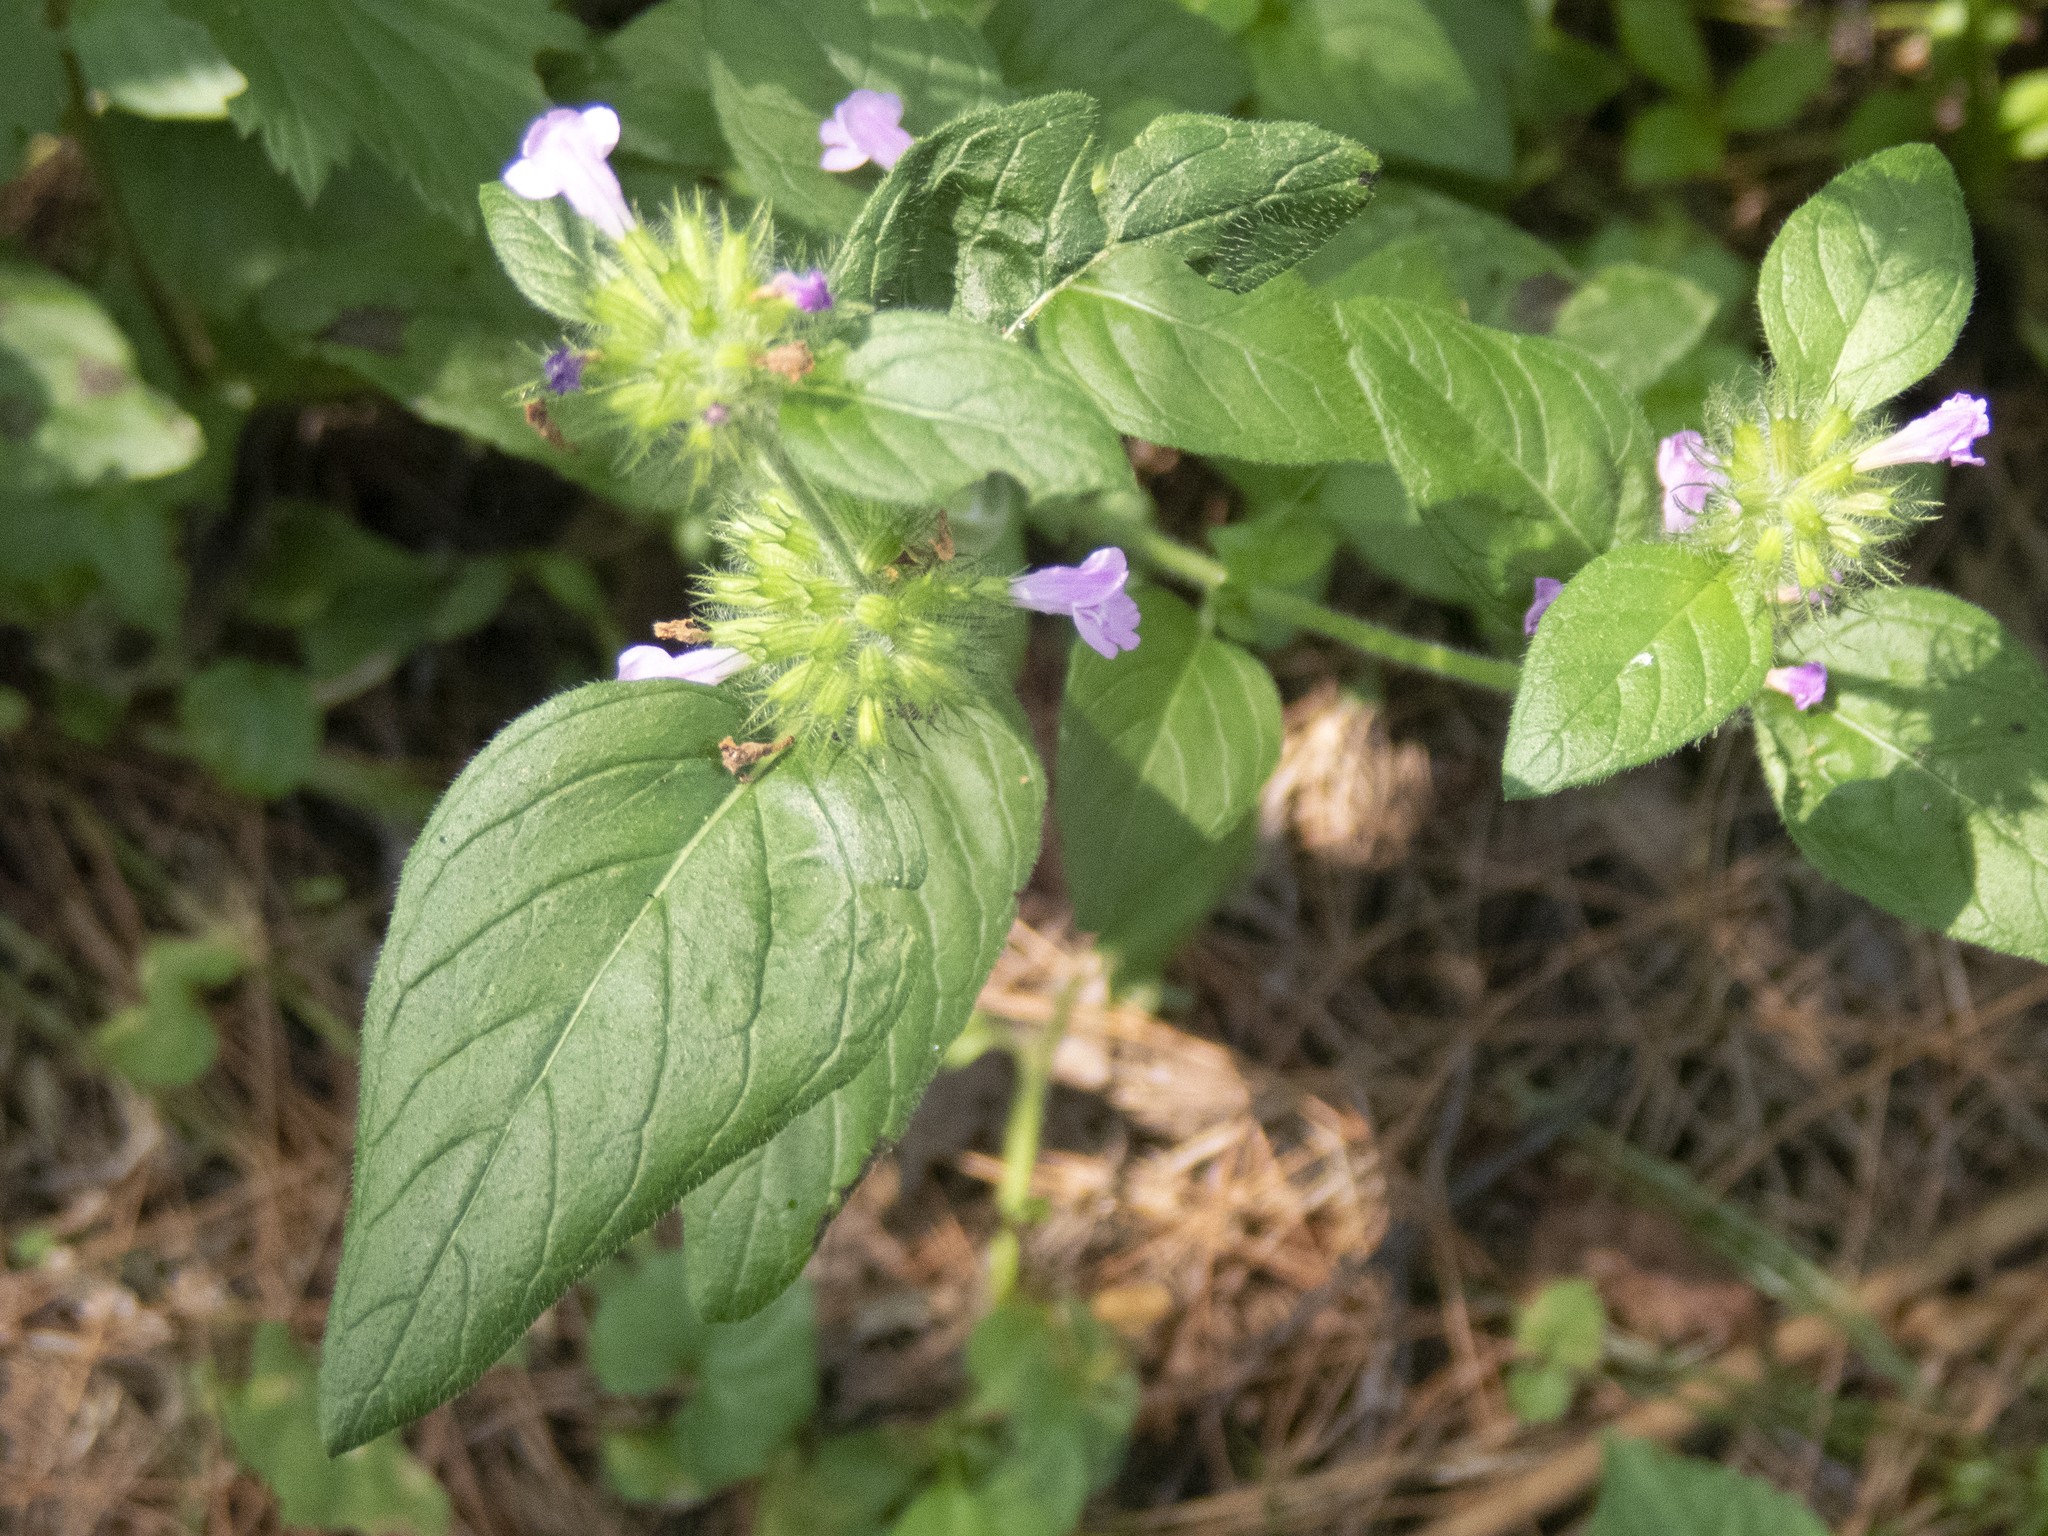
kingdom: Plantae
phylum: Tracheophyta
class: Magnoliopsida
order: Lamiales
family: Lamiaceae
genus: Clinopodium
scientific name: Clinopodium vulgare
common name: Wild basil
